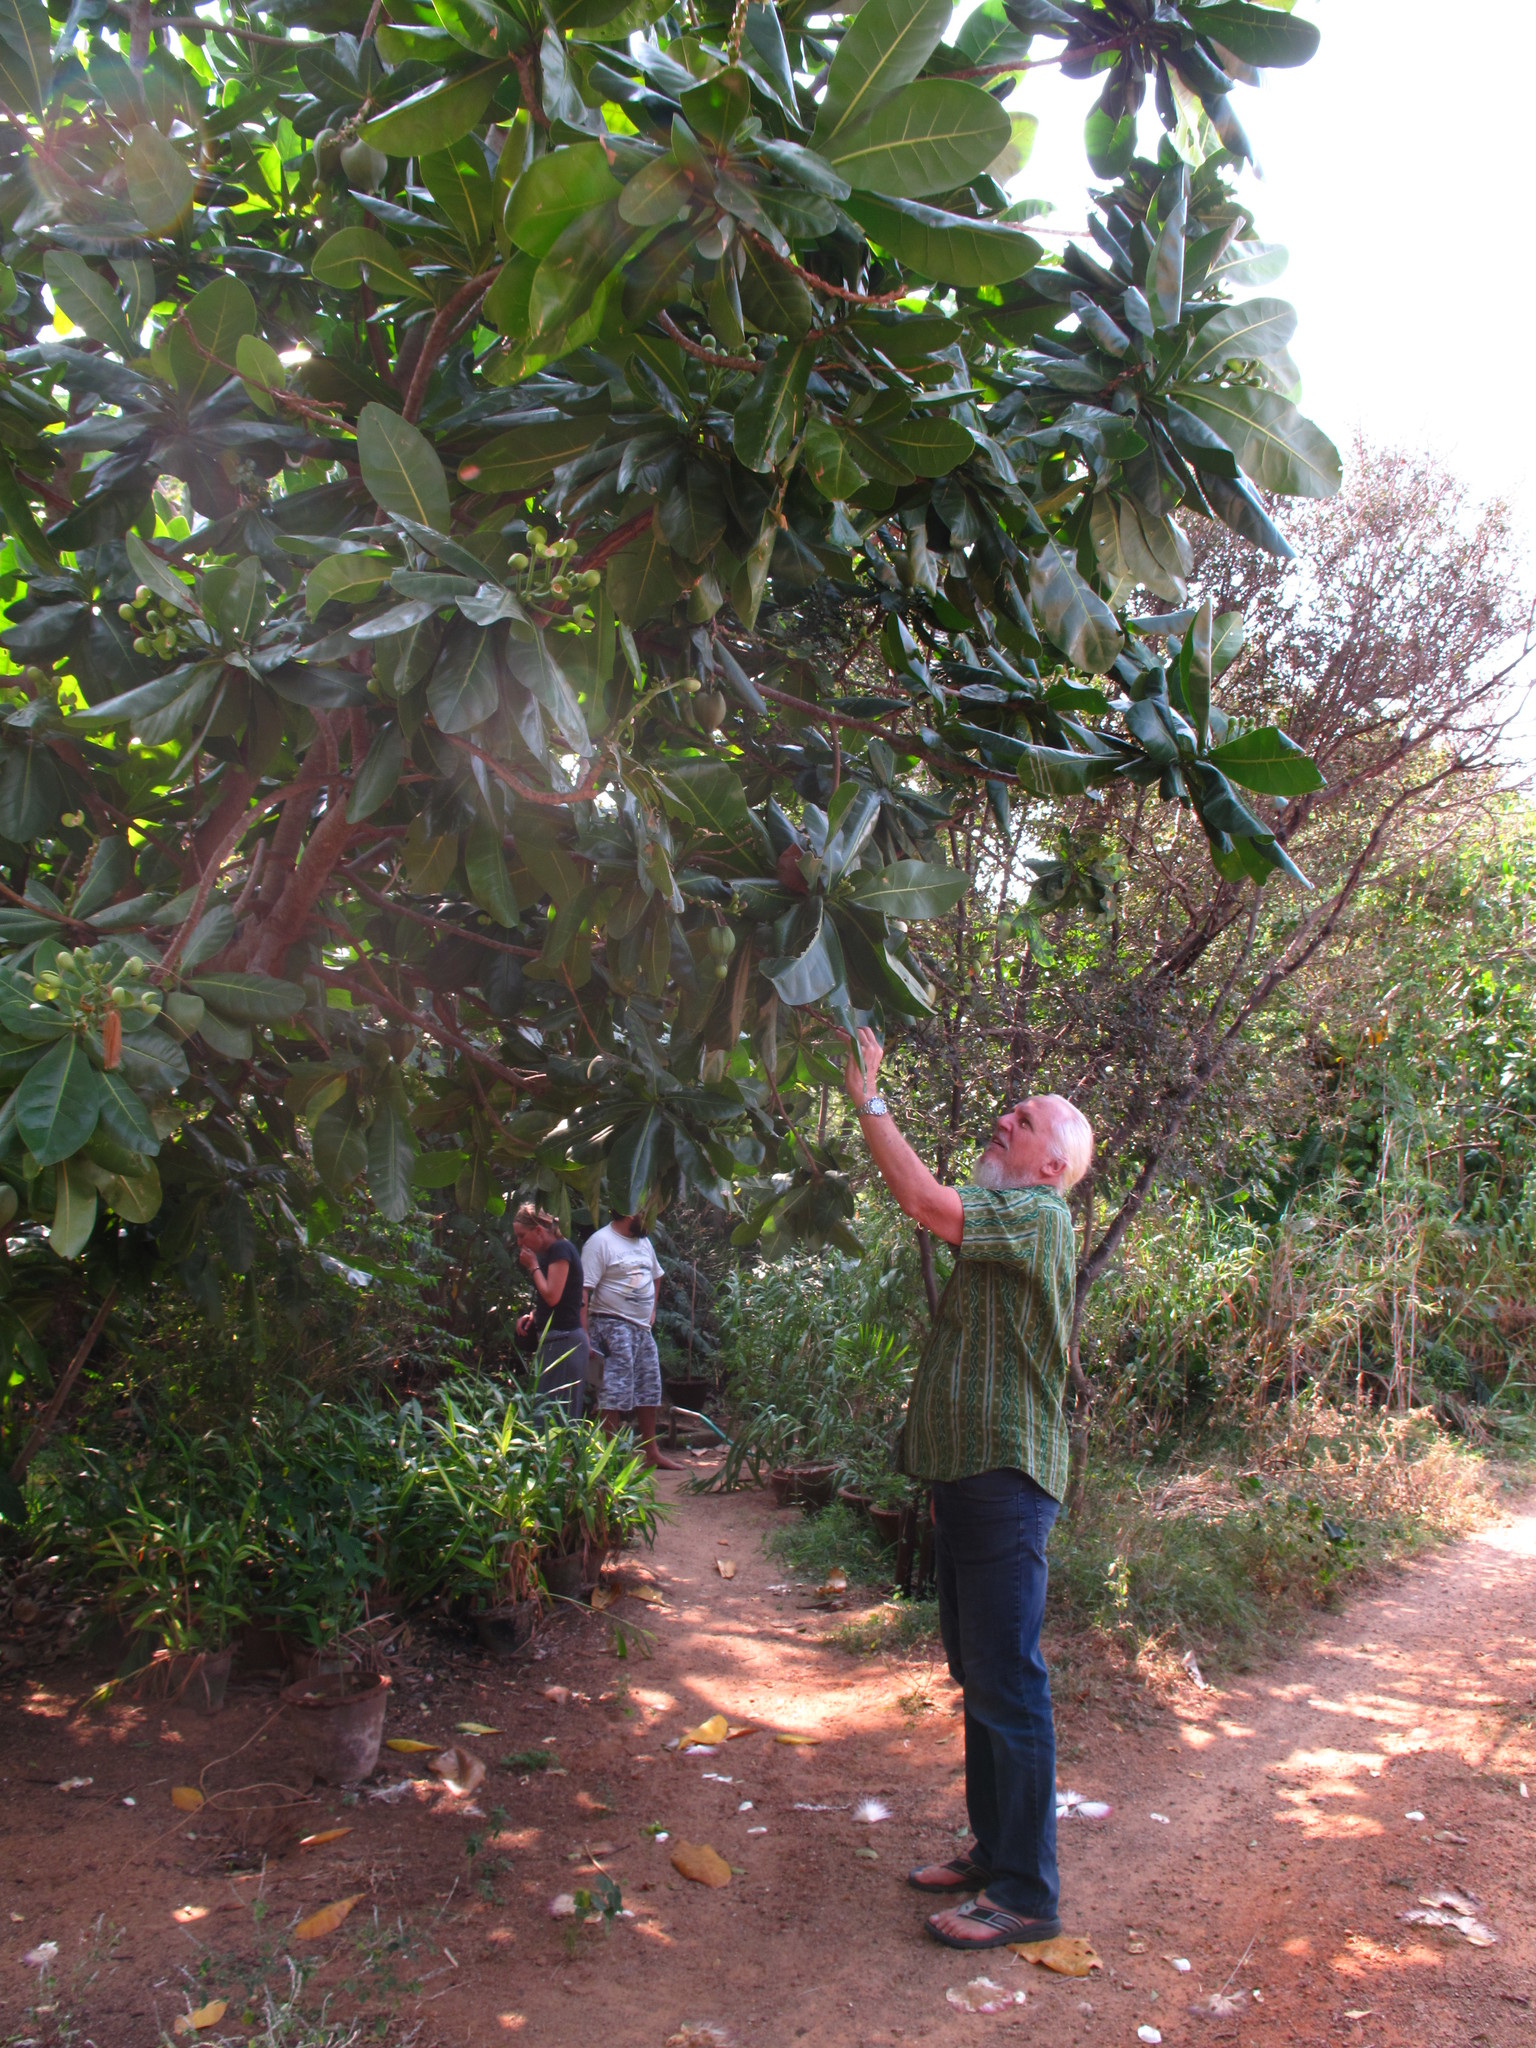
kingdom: Plantae
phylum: Tracheophyta
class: Magnoliopsida
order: Ericales
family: Lecythidaceae
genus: Barringtonia
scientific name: Barringtonia asiatica
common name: Mango-pine
